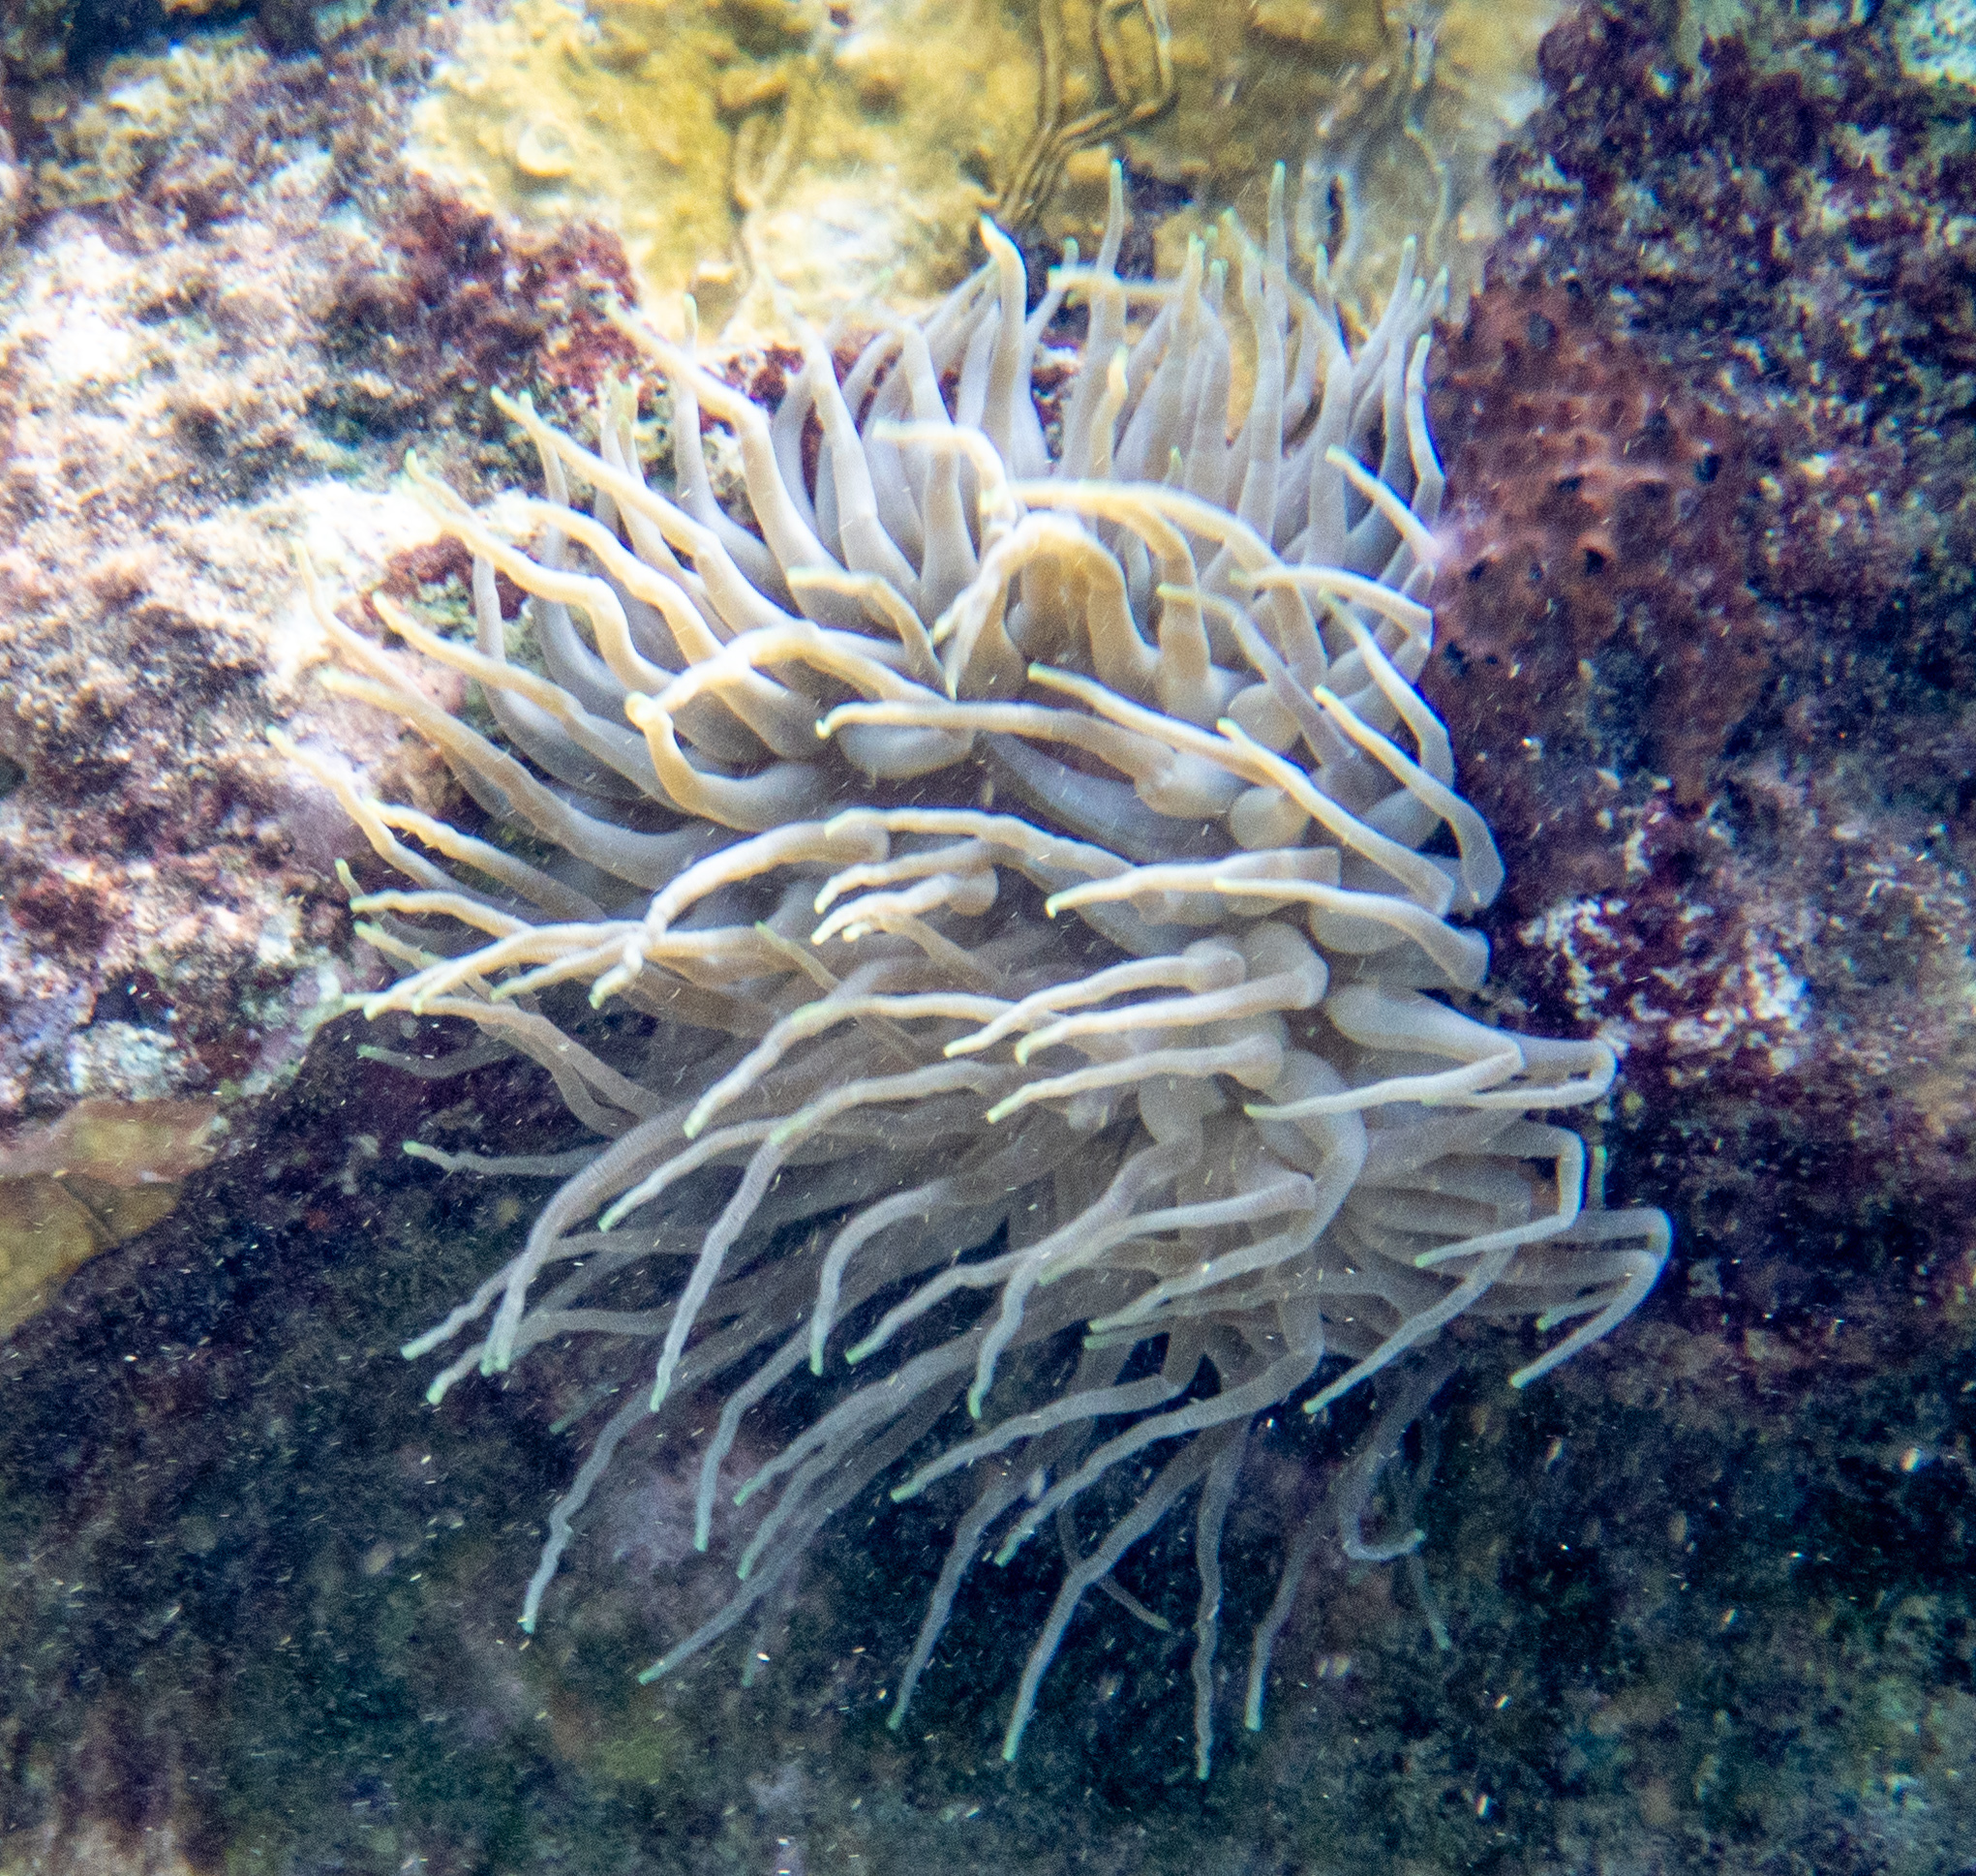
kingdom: Animalia
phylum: Cnidaria
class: Anthozoa
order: Actiniaria
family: Actiniidae
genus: Condylactis
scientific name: Condylactis gigantea
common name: Giant caribbean anemone
